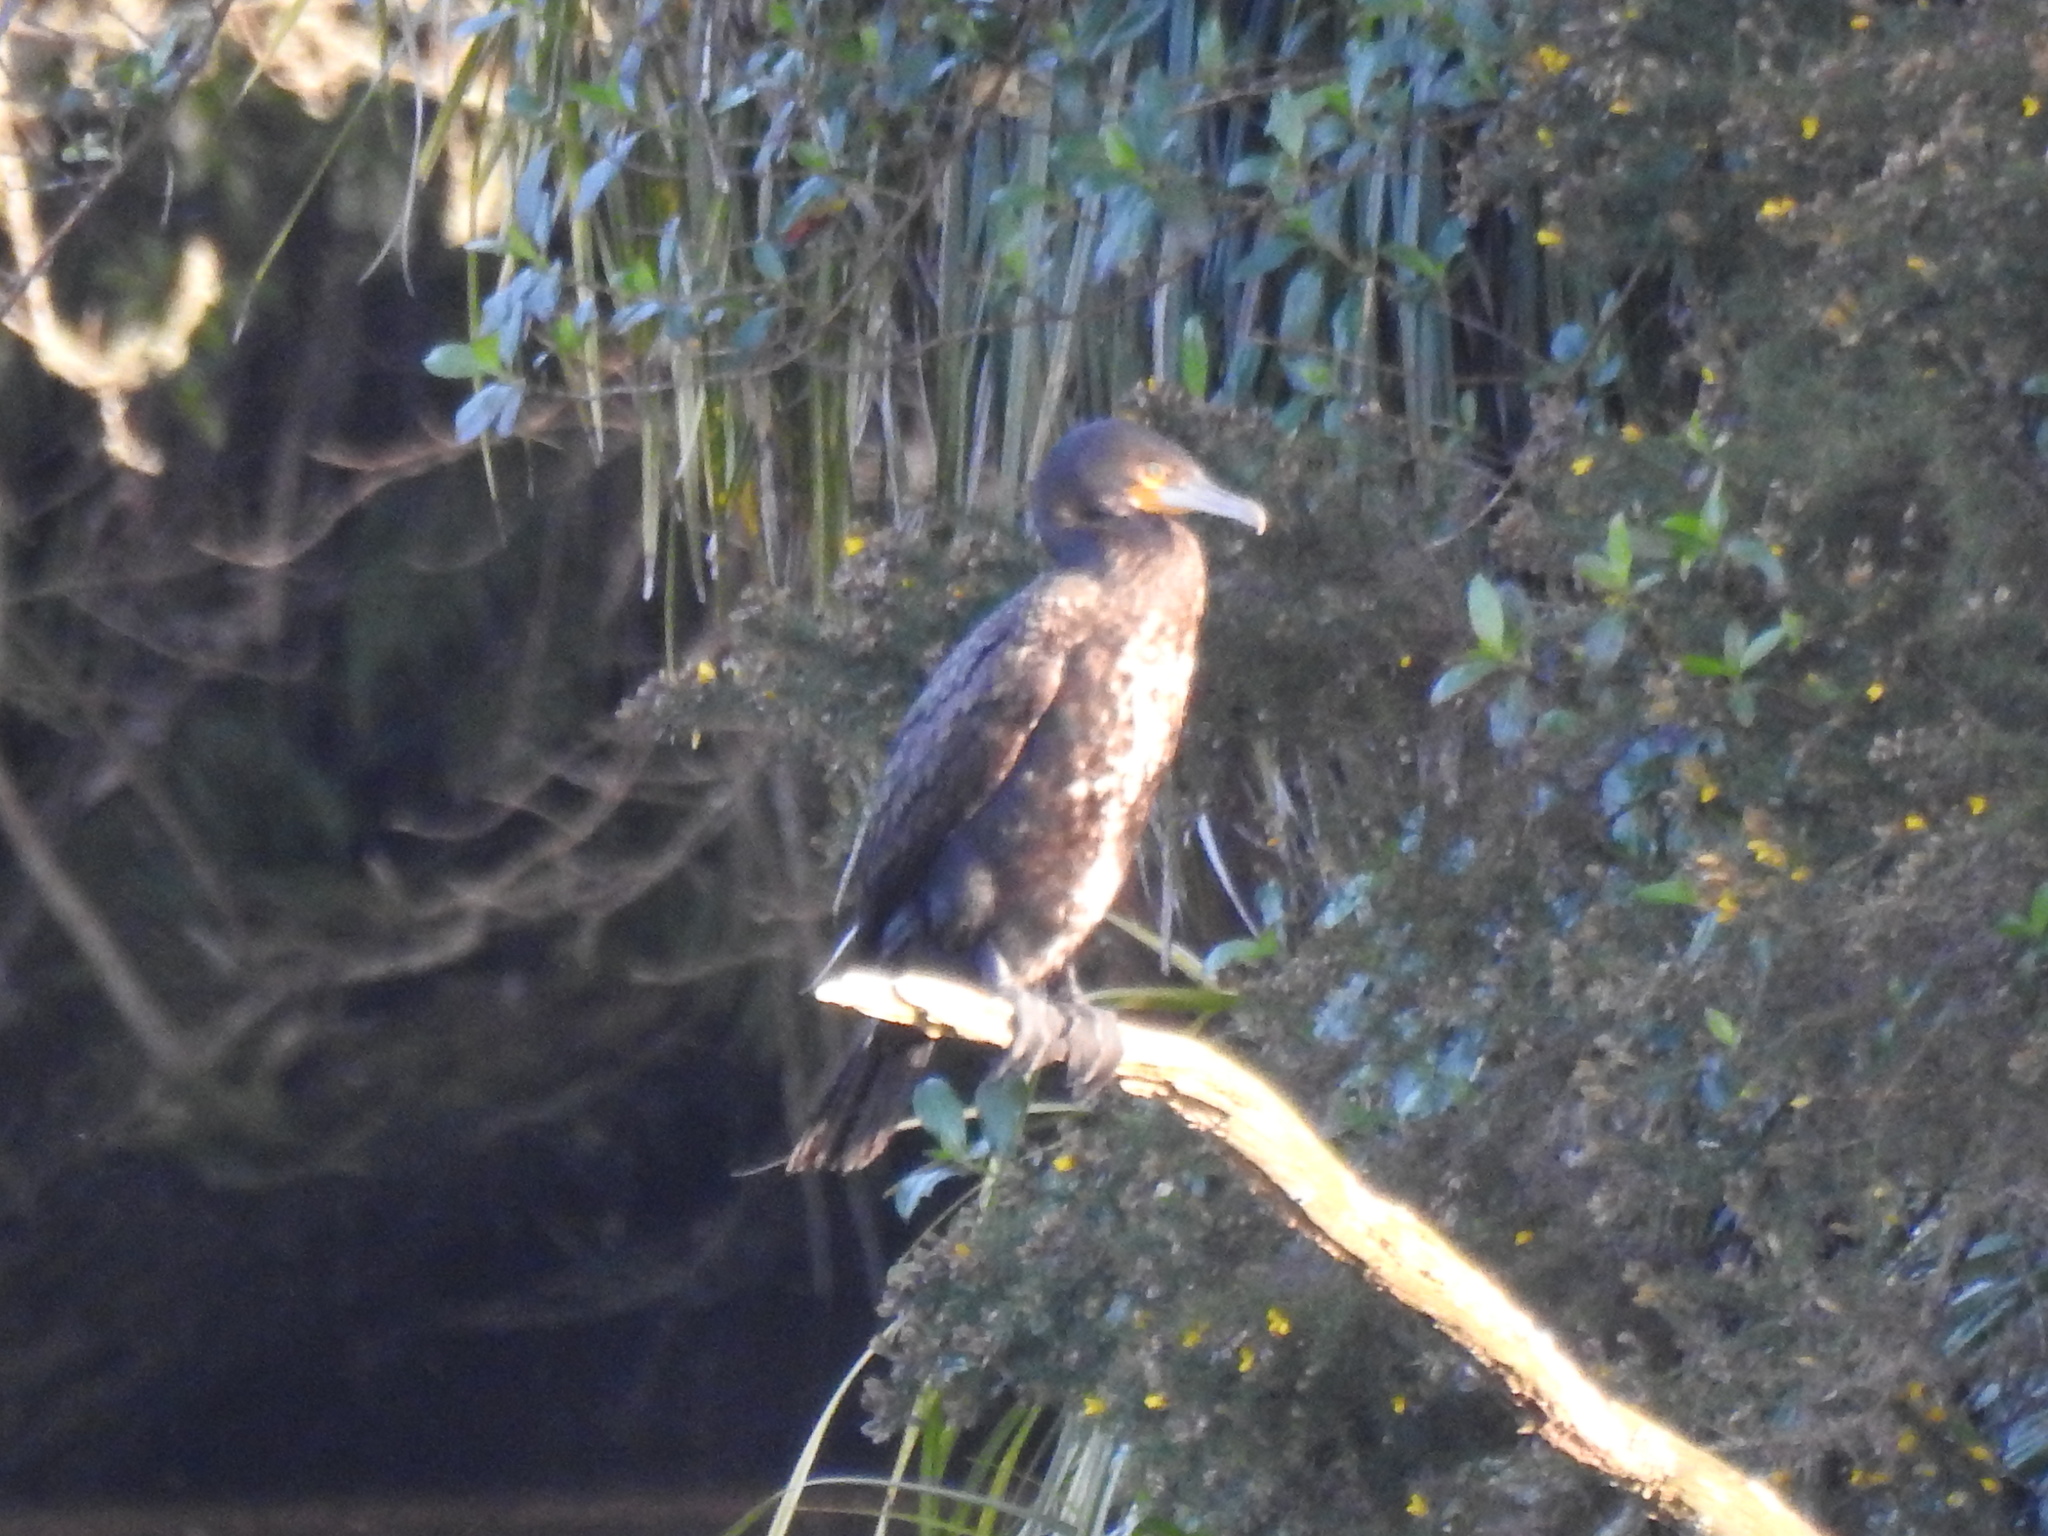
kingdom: Animalia
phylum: Chordata
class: Aves
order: Suliformes
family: Phalacrocoracidae
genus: Phalacrocorax
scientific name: Phalacrocorax carbo
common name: Great cormorant
